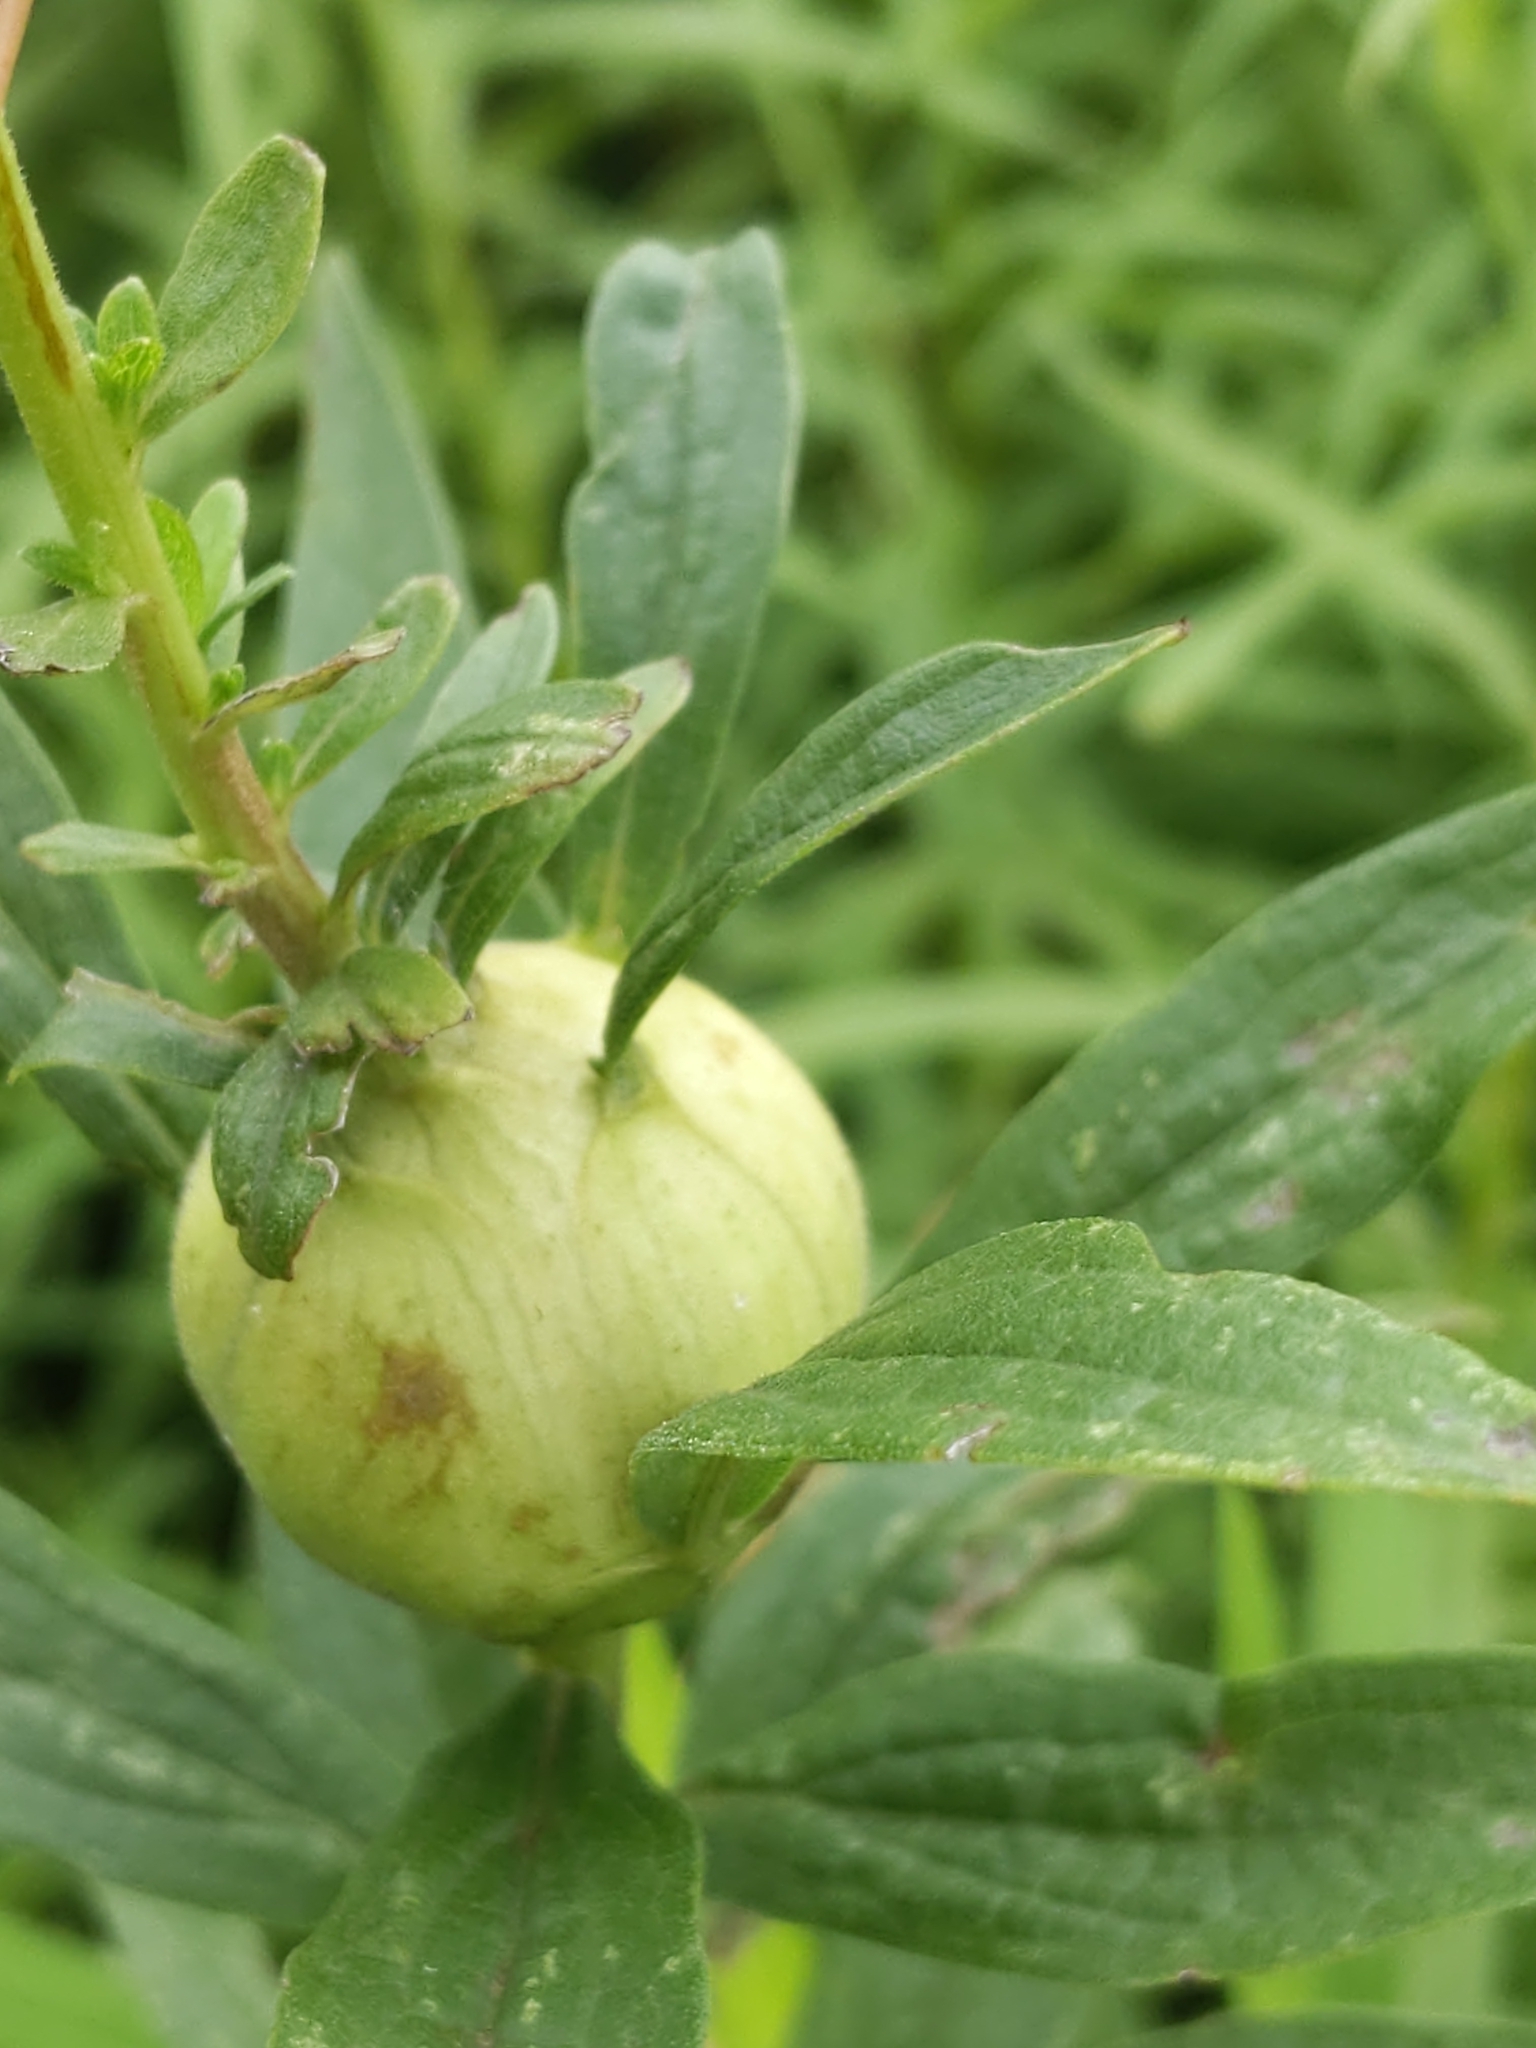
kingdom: Animalia
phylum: Arthropoda
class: Insecta
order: Diptera
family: Tephritidae
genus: Eurosta
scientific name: Eurosta solidaginis
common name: Goldenrod gall fly
